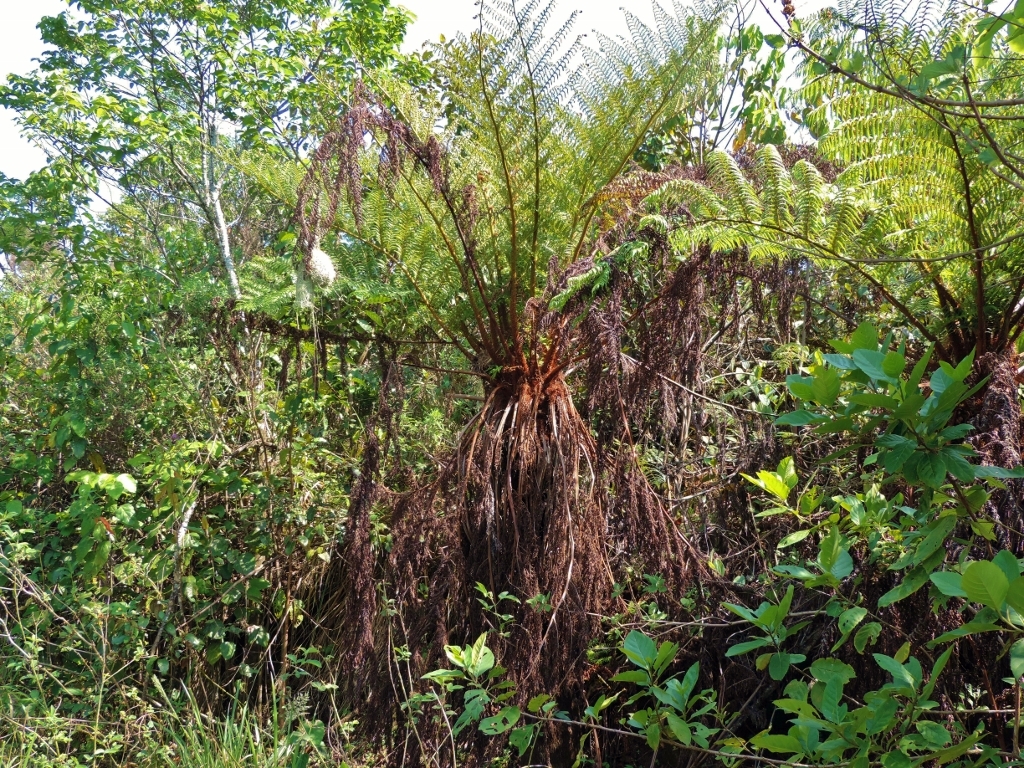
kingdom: Animalia
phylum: Chordata
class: Aves
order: Passeriformes
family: Ploceidae
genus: Ploceus
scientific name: Ploceus ocularis
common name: Spectacled weaver
